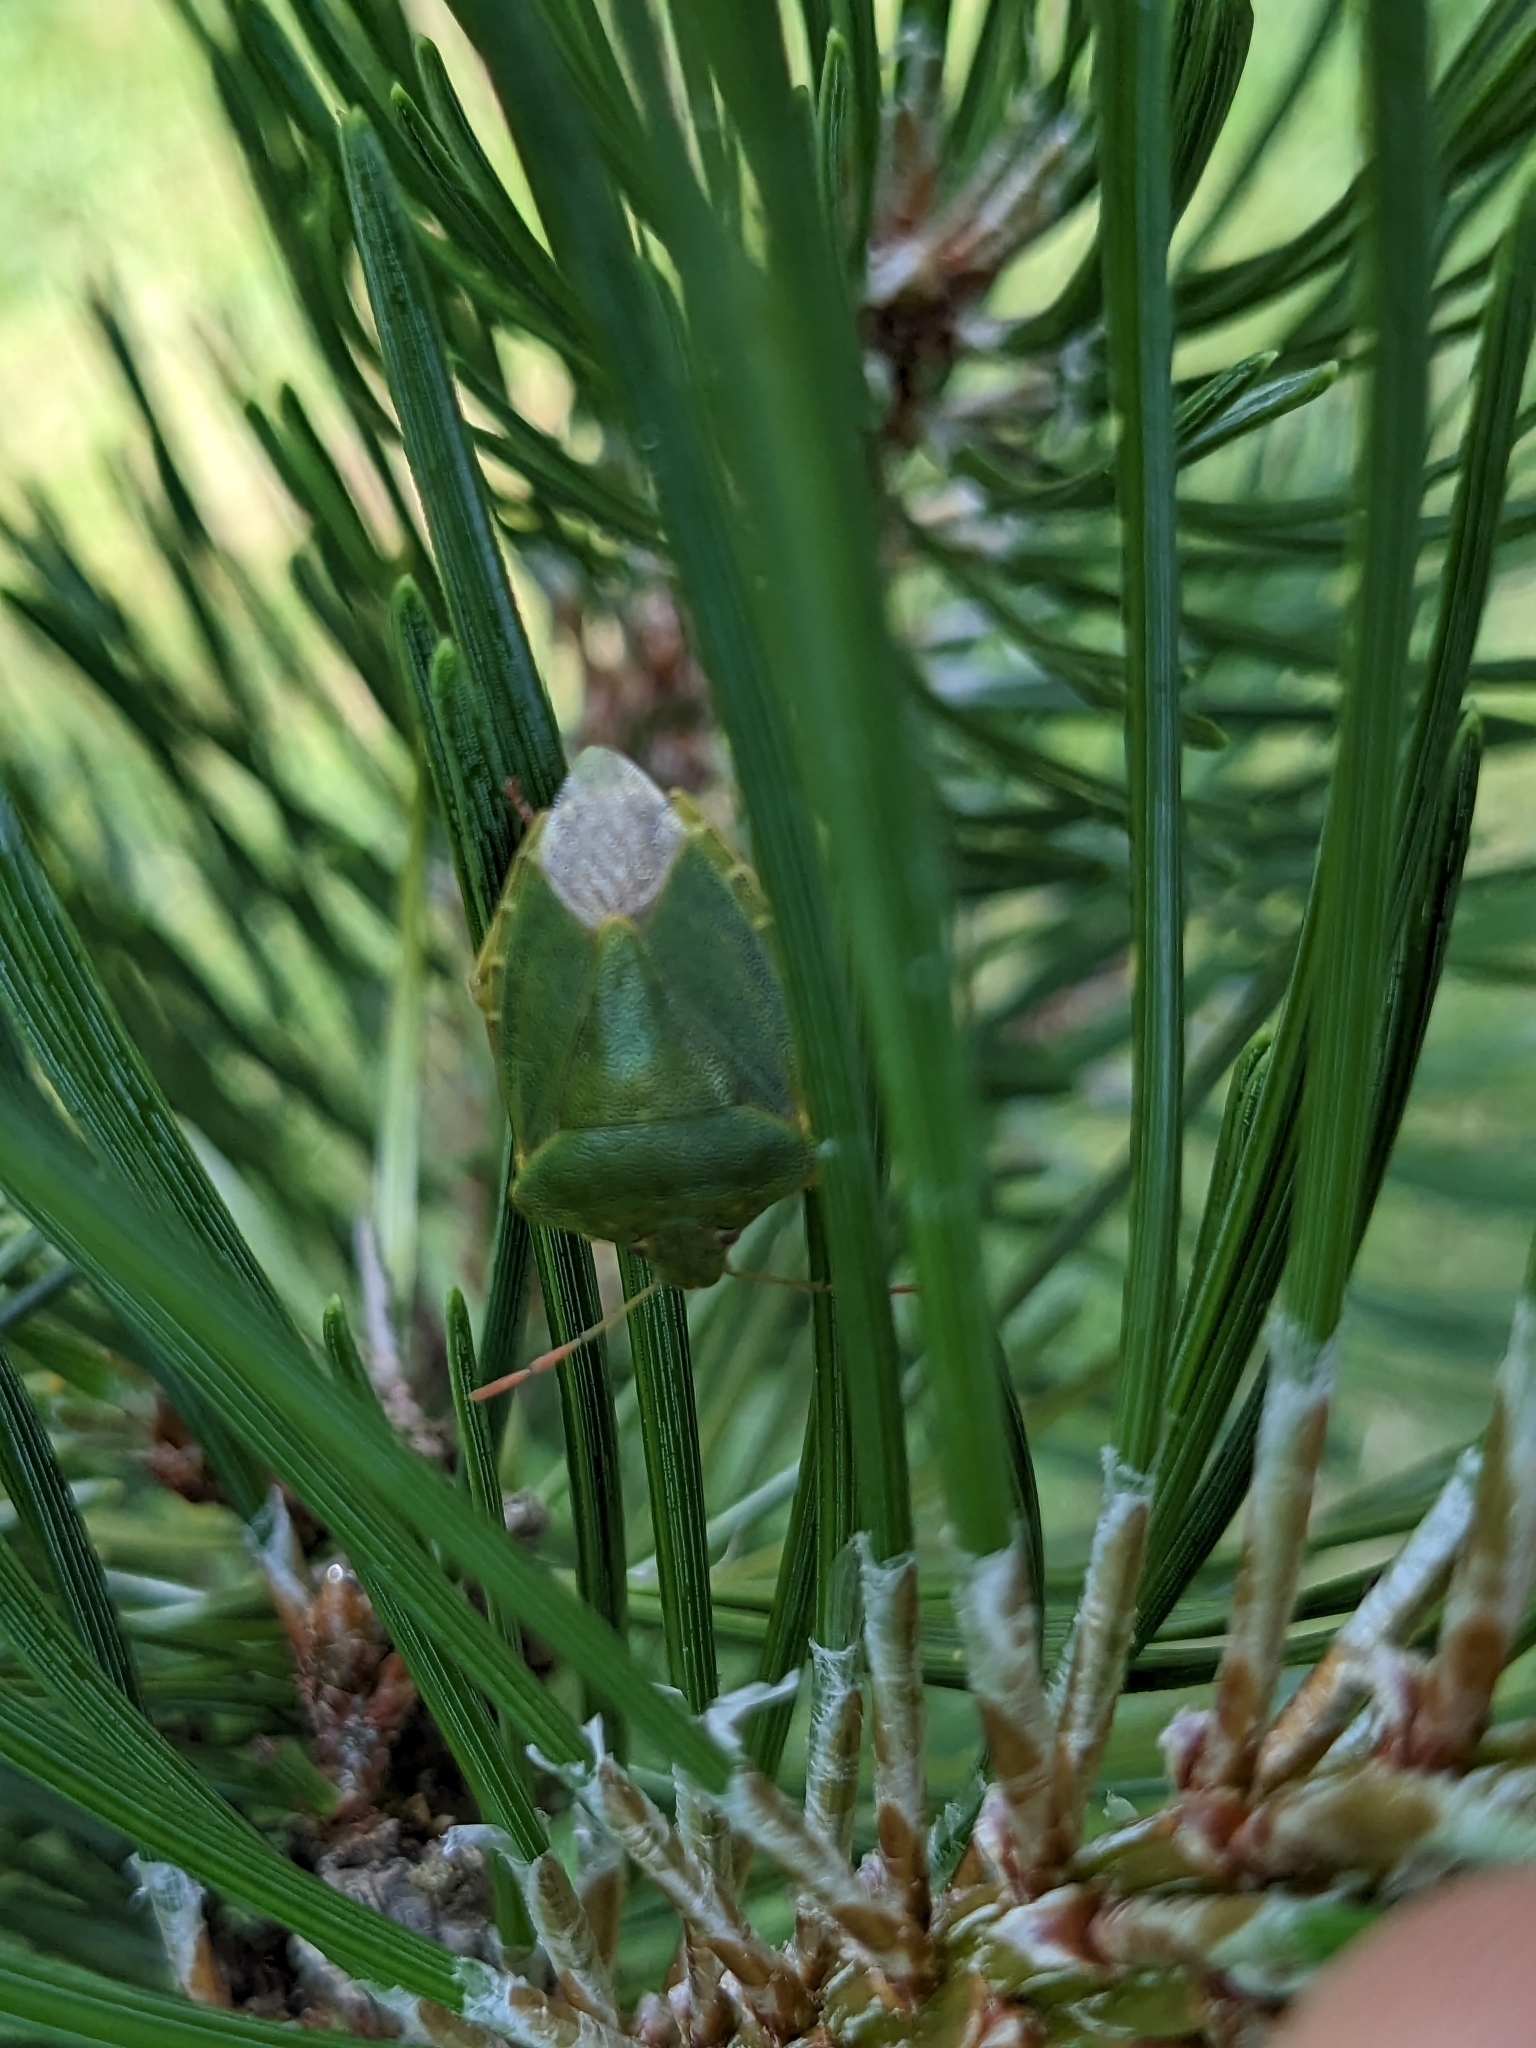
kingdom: Animalia
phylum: Arthropoda
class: Insecta
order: Hemiptera
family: Pentatomidae
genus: Palomena
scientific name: Palomena prasina
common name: Green shieldbug
